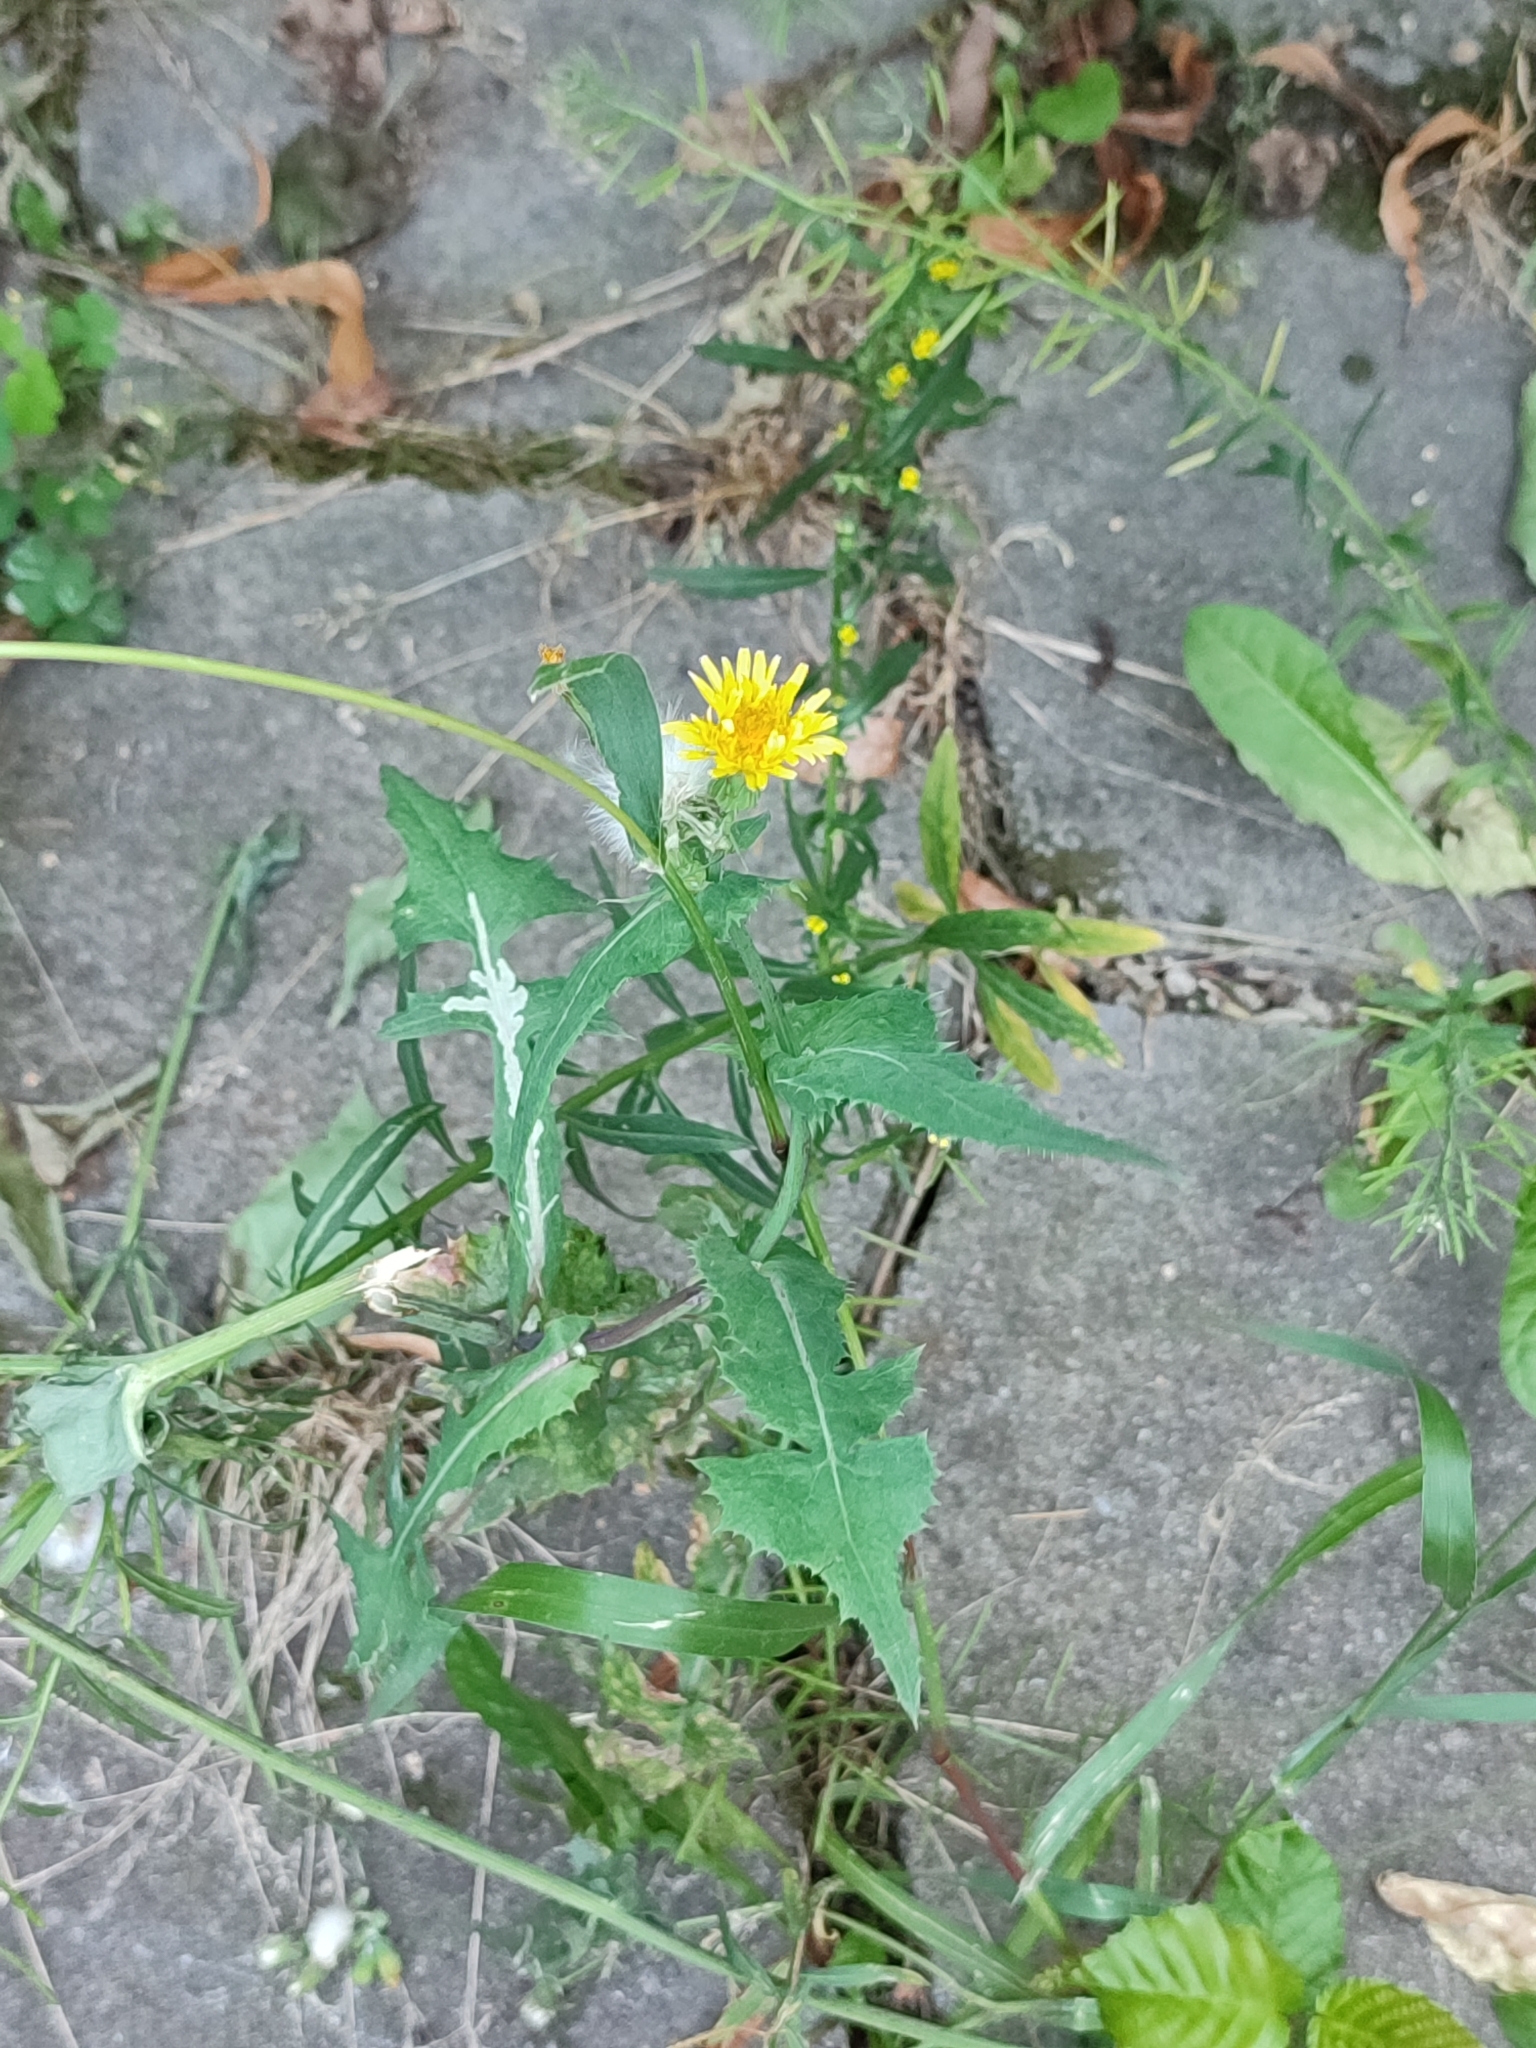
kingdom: Plantae
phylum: Tracheophyta
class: Magnoliopsida
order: Asterales
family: Asteraceae
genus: Sonchus
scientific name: Sonchus oleraceus
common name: Common sowthistle
